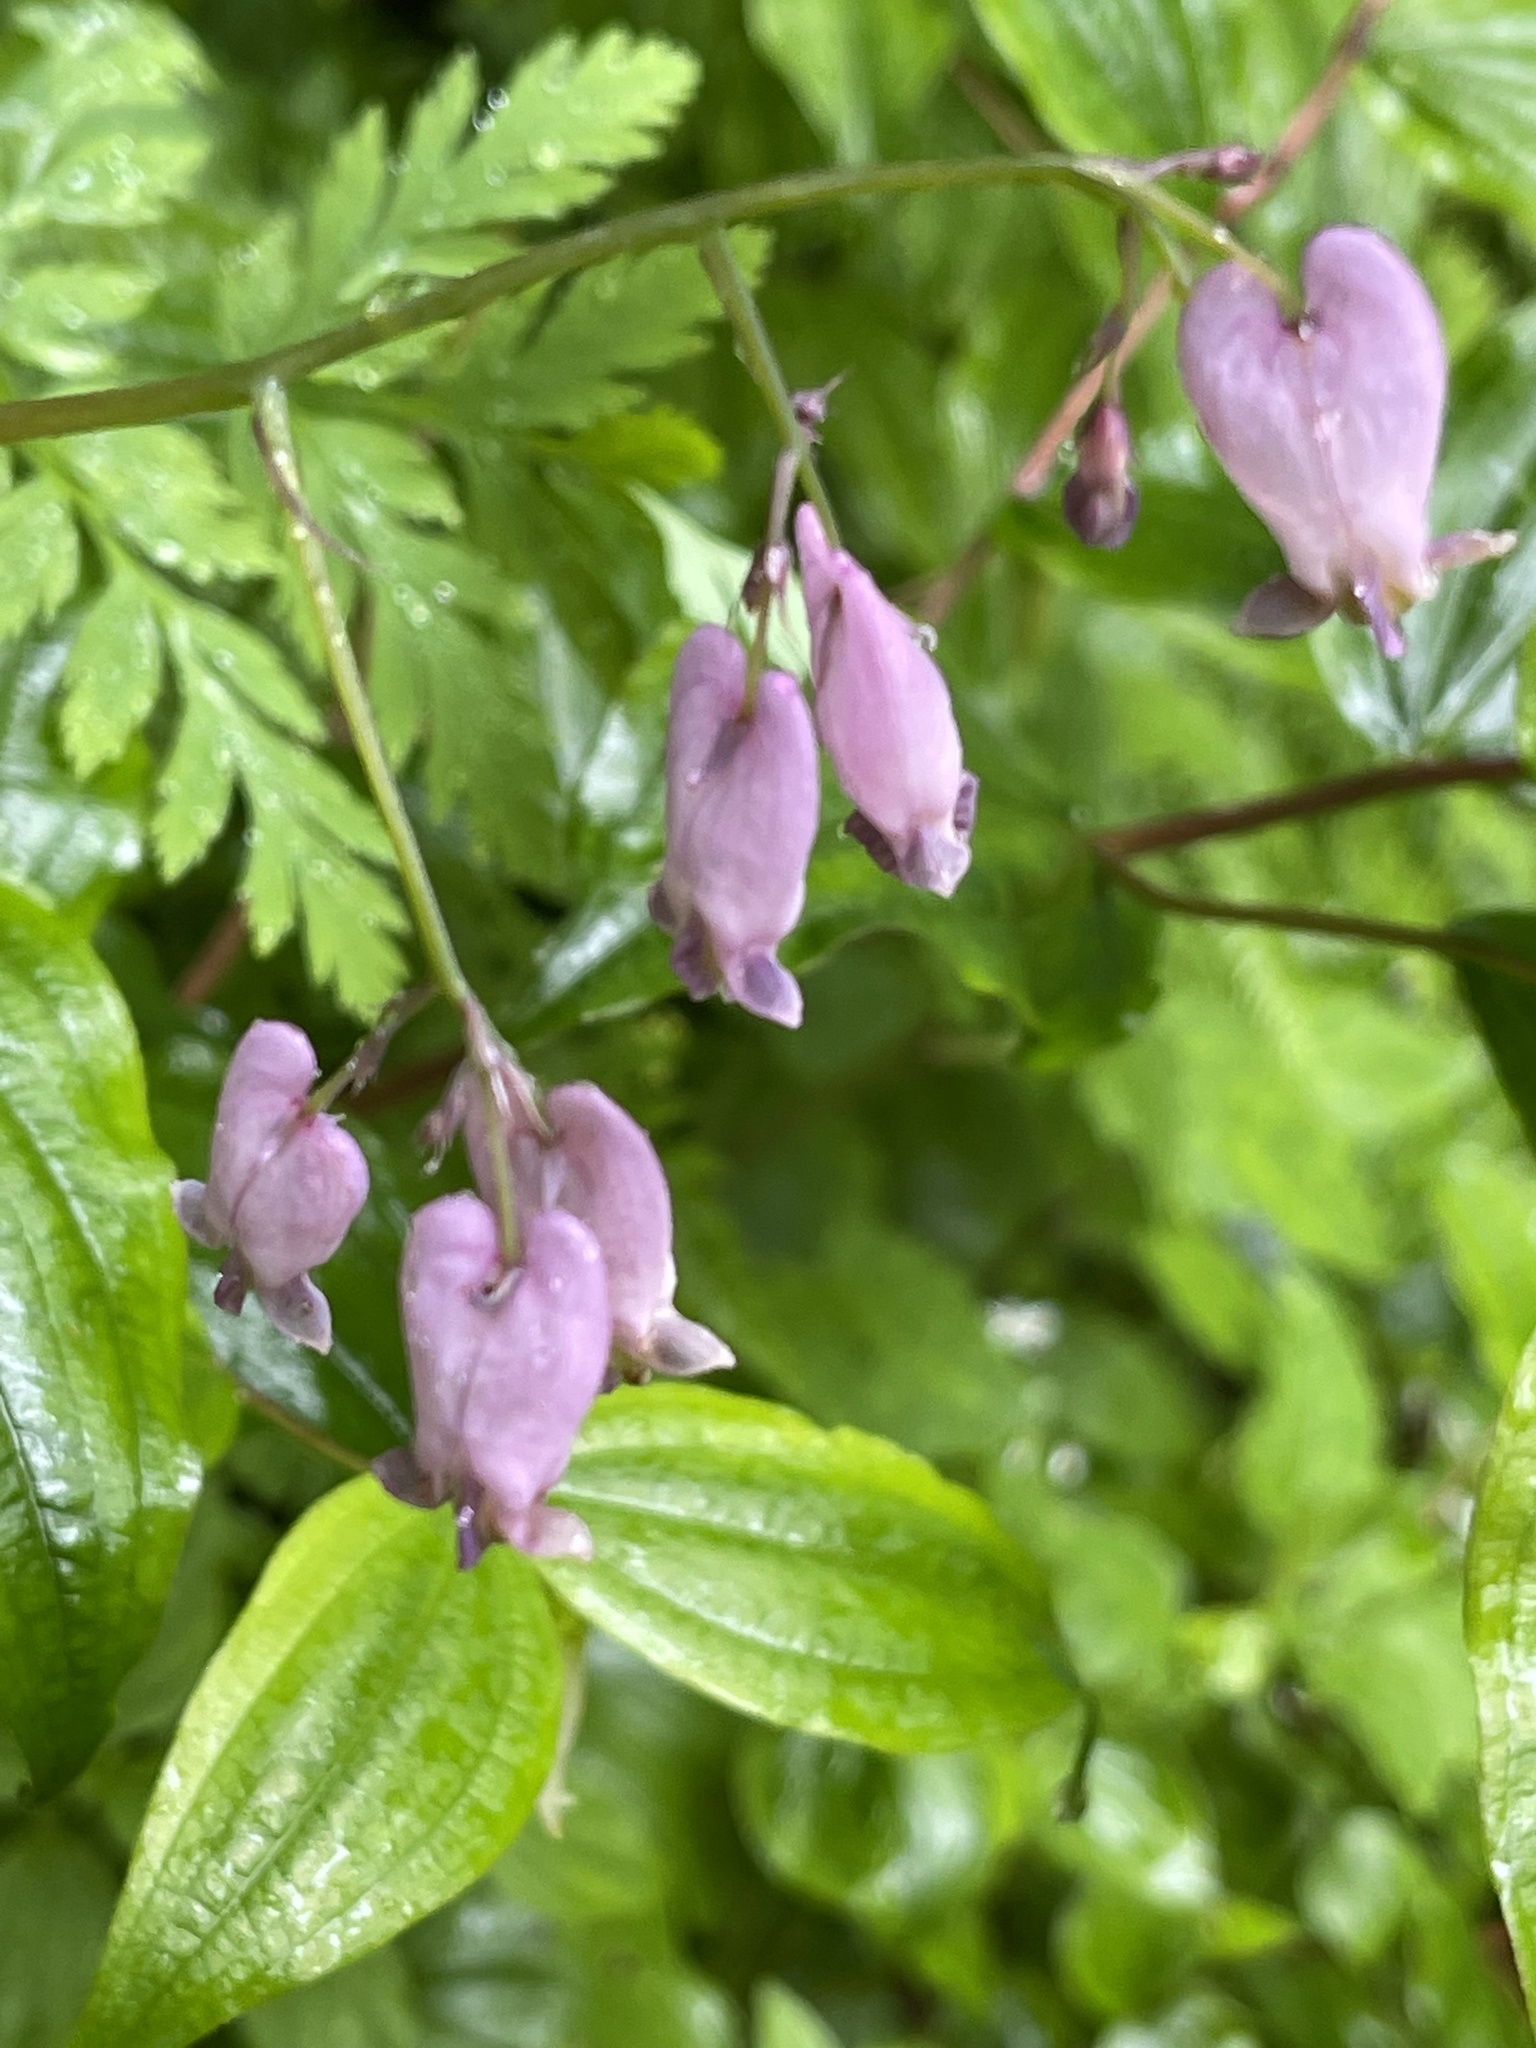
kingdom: Plantae
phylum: Tracheophyta
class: Magnoliopsida
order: Ranunculales
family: Papaveraceae
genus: Dicentra
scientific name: Dicentra formosa
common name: Bleeding-heart
